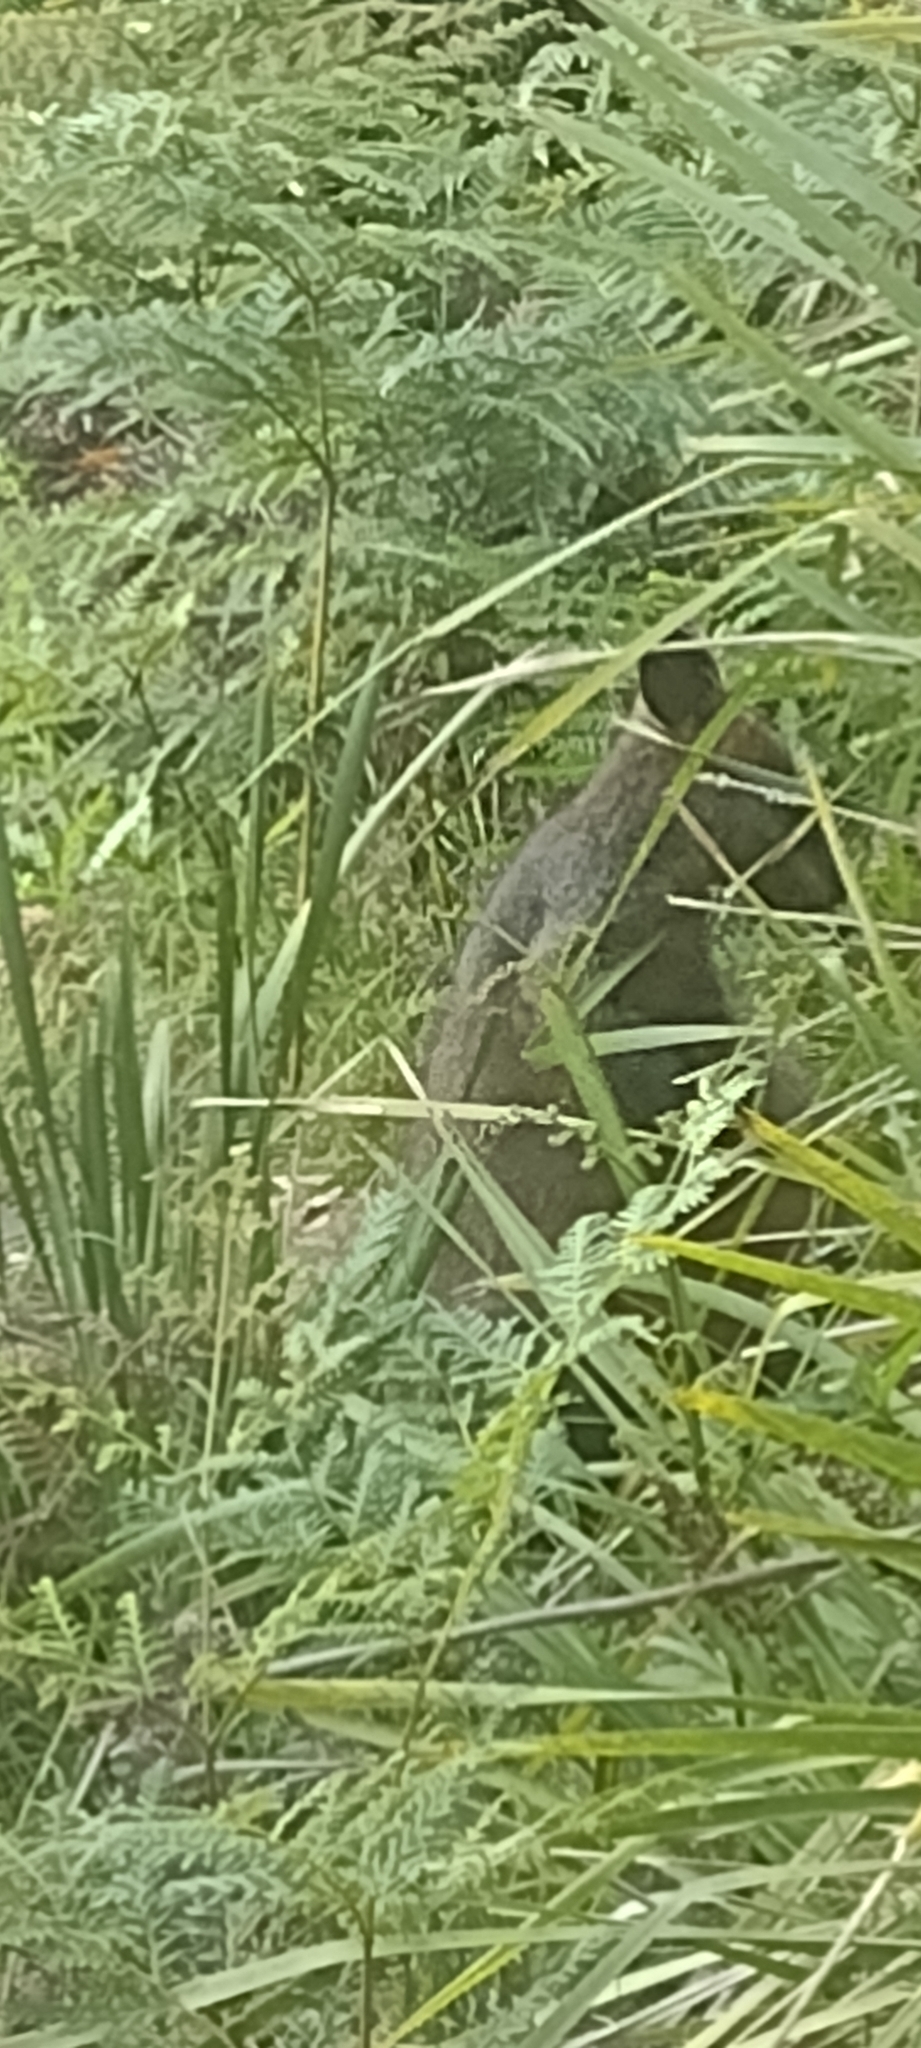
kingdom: Animalia
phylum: Chordata
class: Mammalia
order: Diprotodontia
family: Macropodidae
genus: Wallabia
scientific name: Wallabia bicolor
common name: Swamp wallaby
